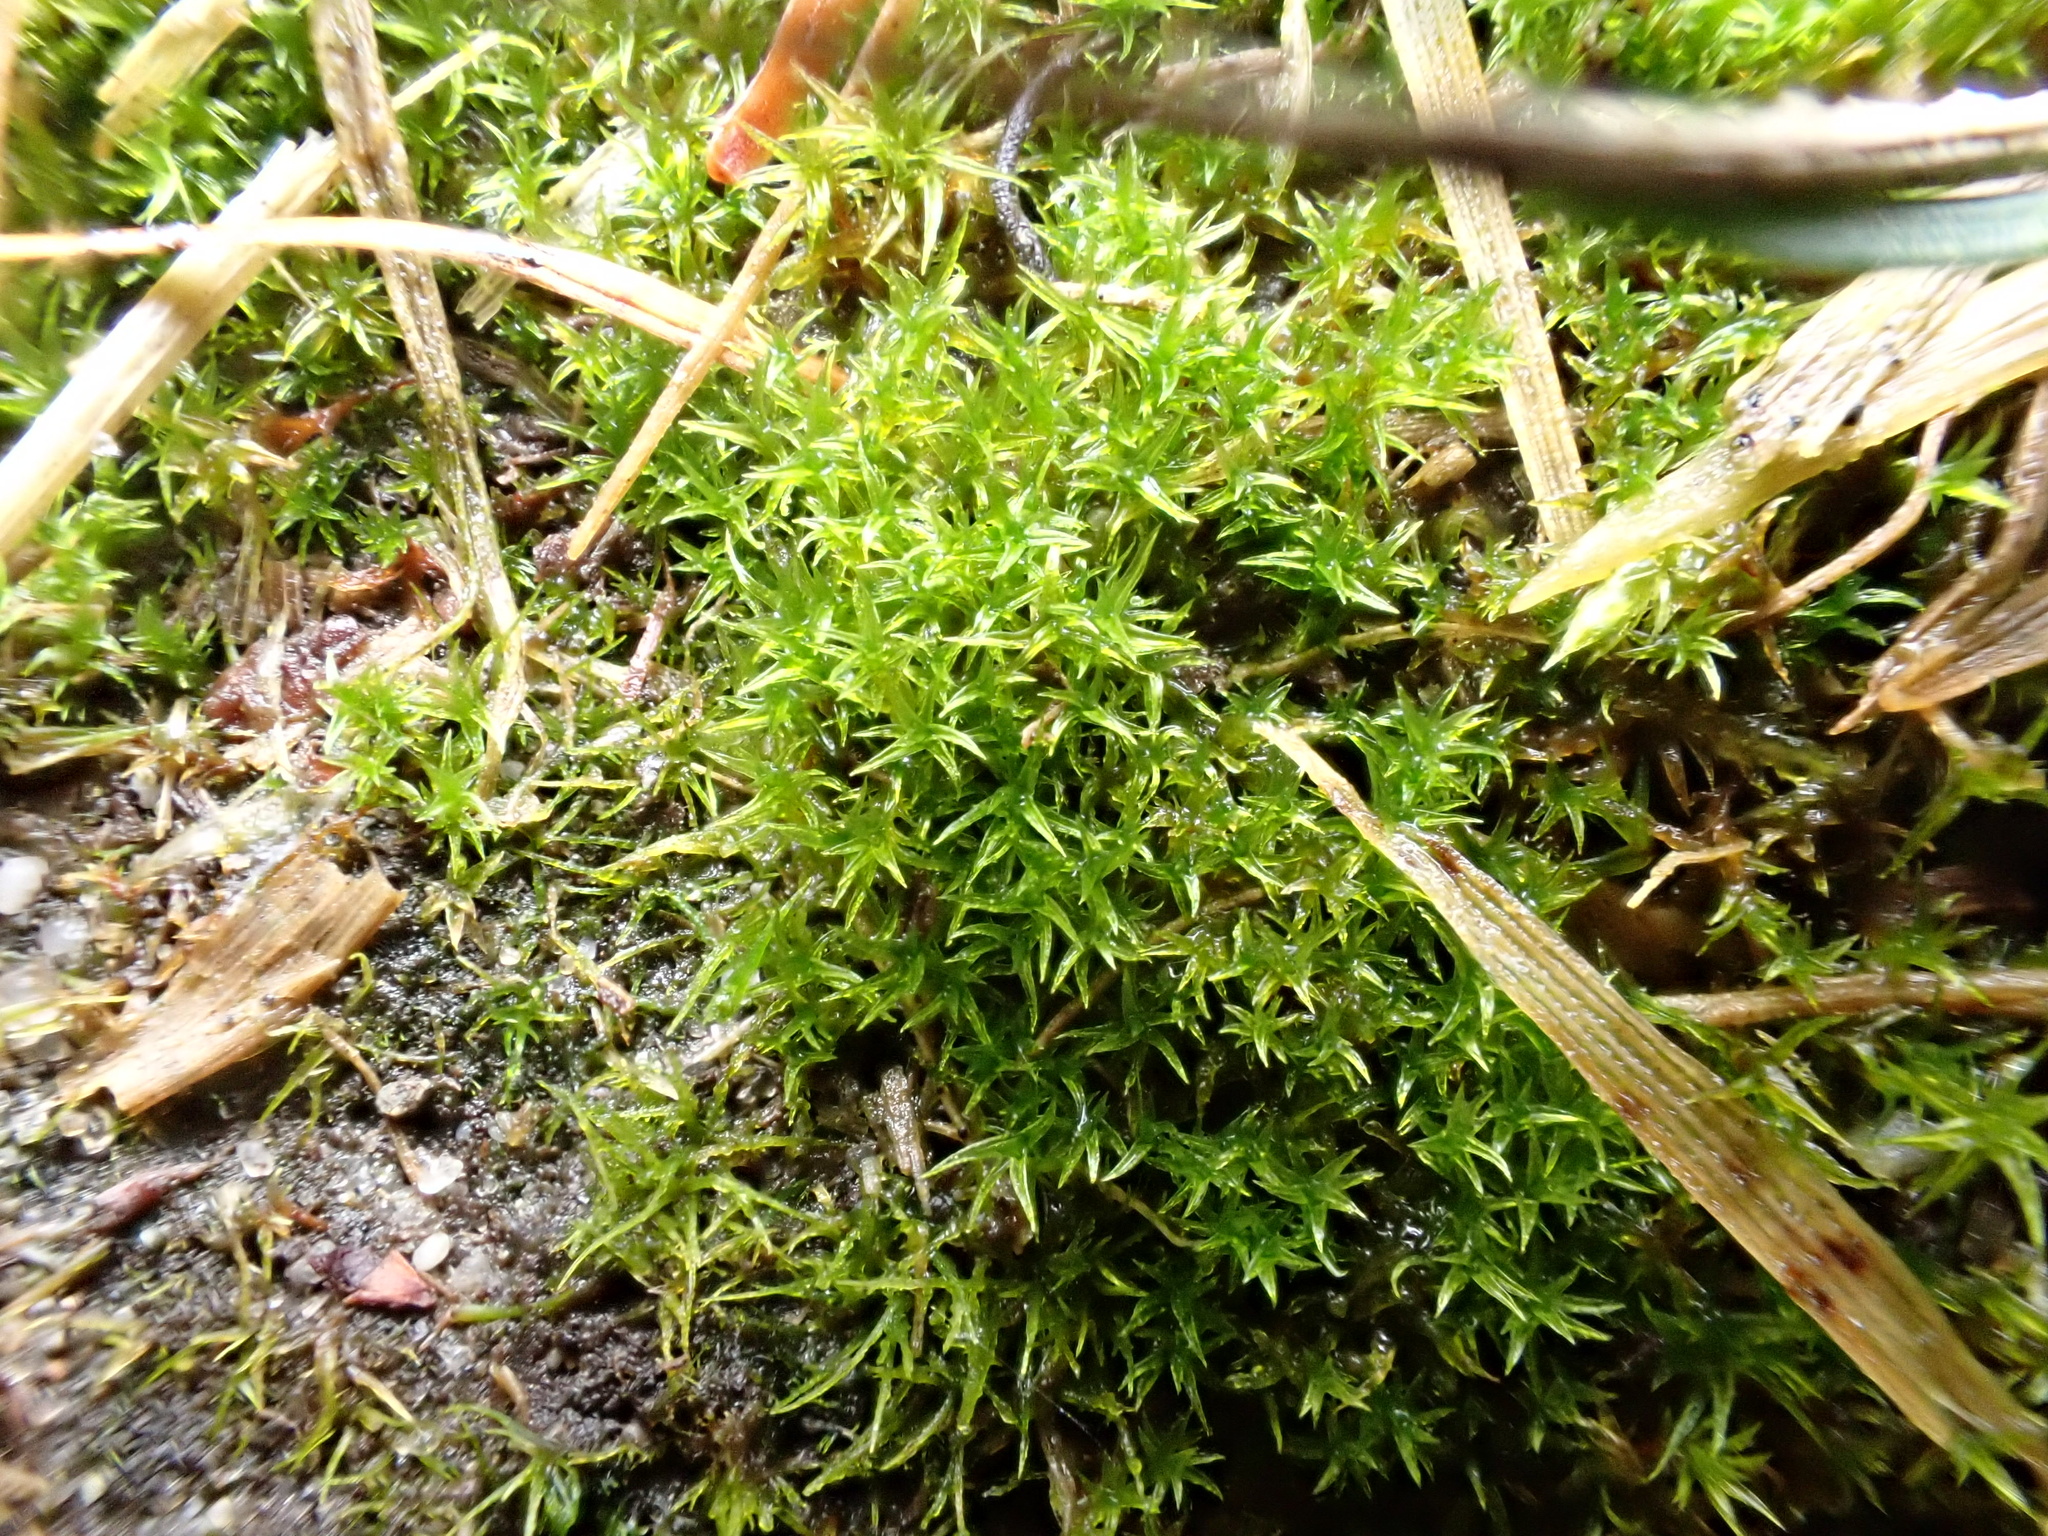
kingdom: Plantae
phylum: Bryophyta
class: Bryopsida
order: Dicranales
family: Ditrichaceae
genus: Ceratodon
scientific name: Ceratodon purpureus
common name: Redshank
